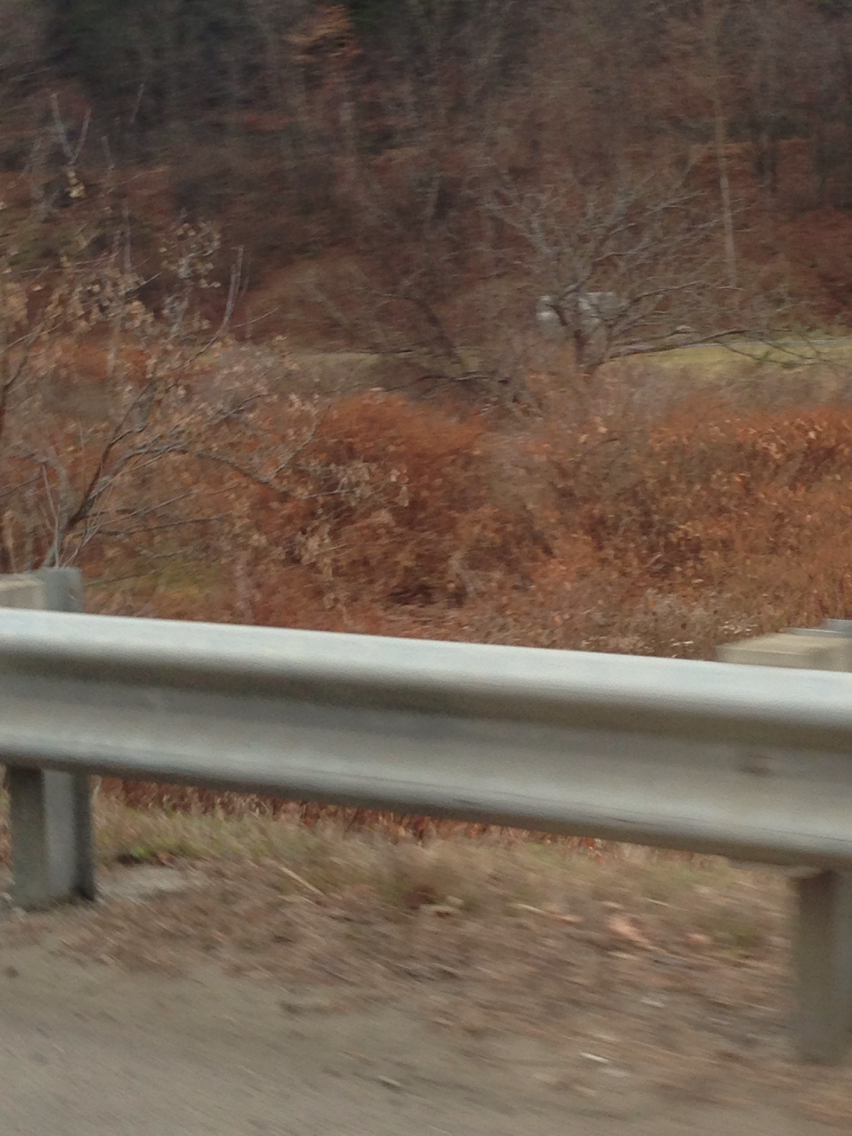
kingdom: Plantae
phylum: Tracheophyta
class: Magnoliopsida
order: Caryophyllales
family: Polygonaceae
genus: Reynoutria
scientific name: Reynoutria japonica
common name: Japanese knotweed
